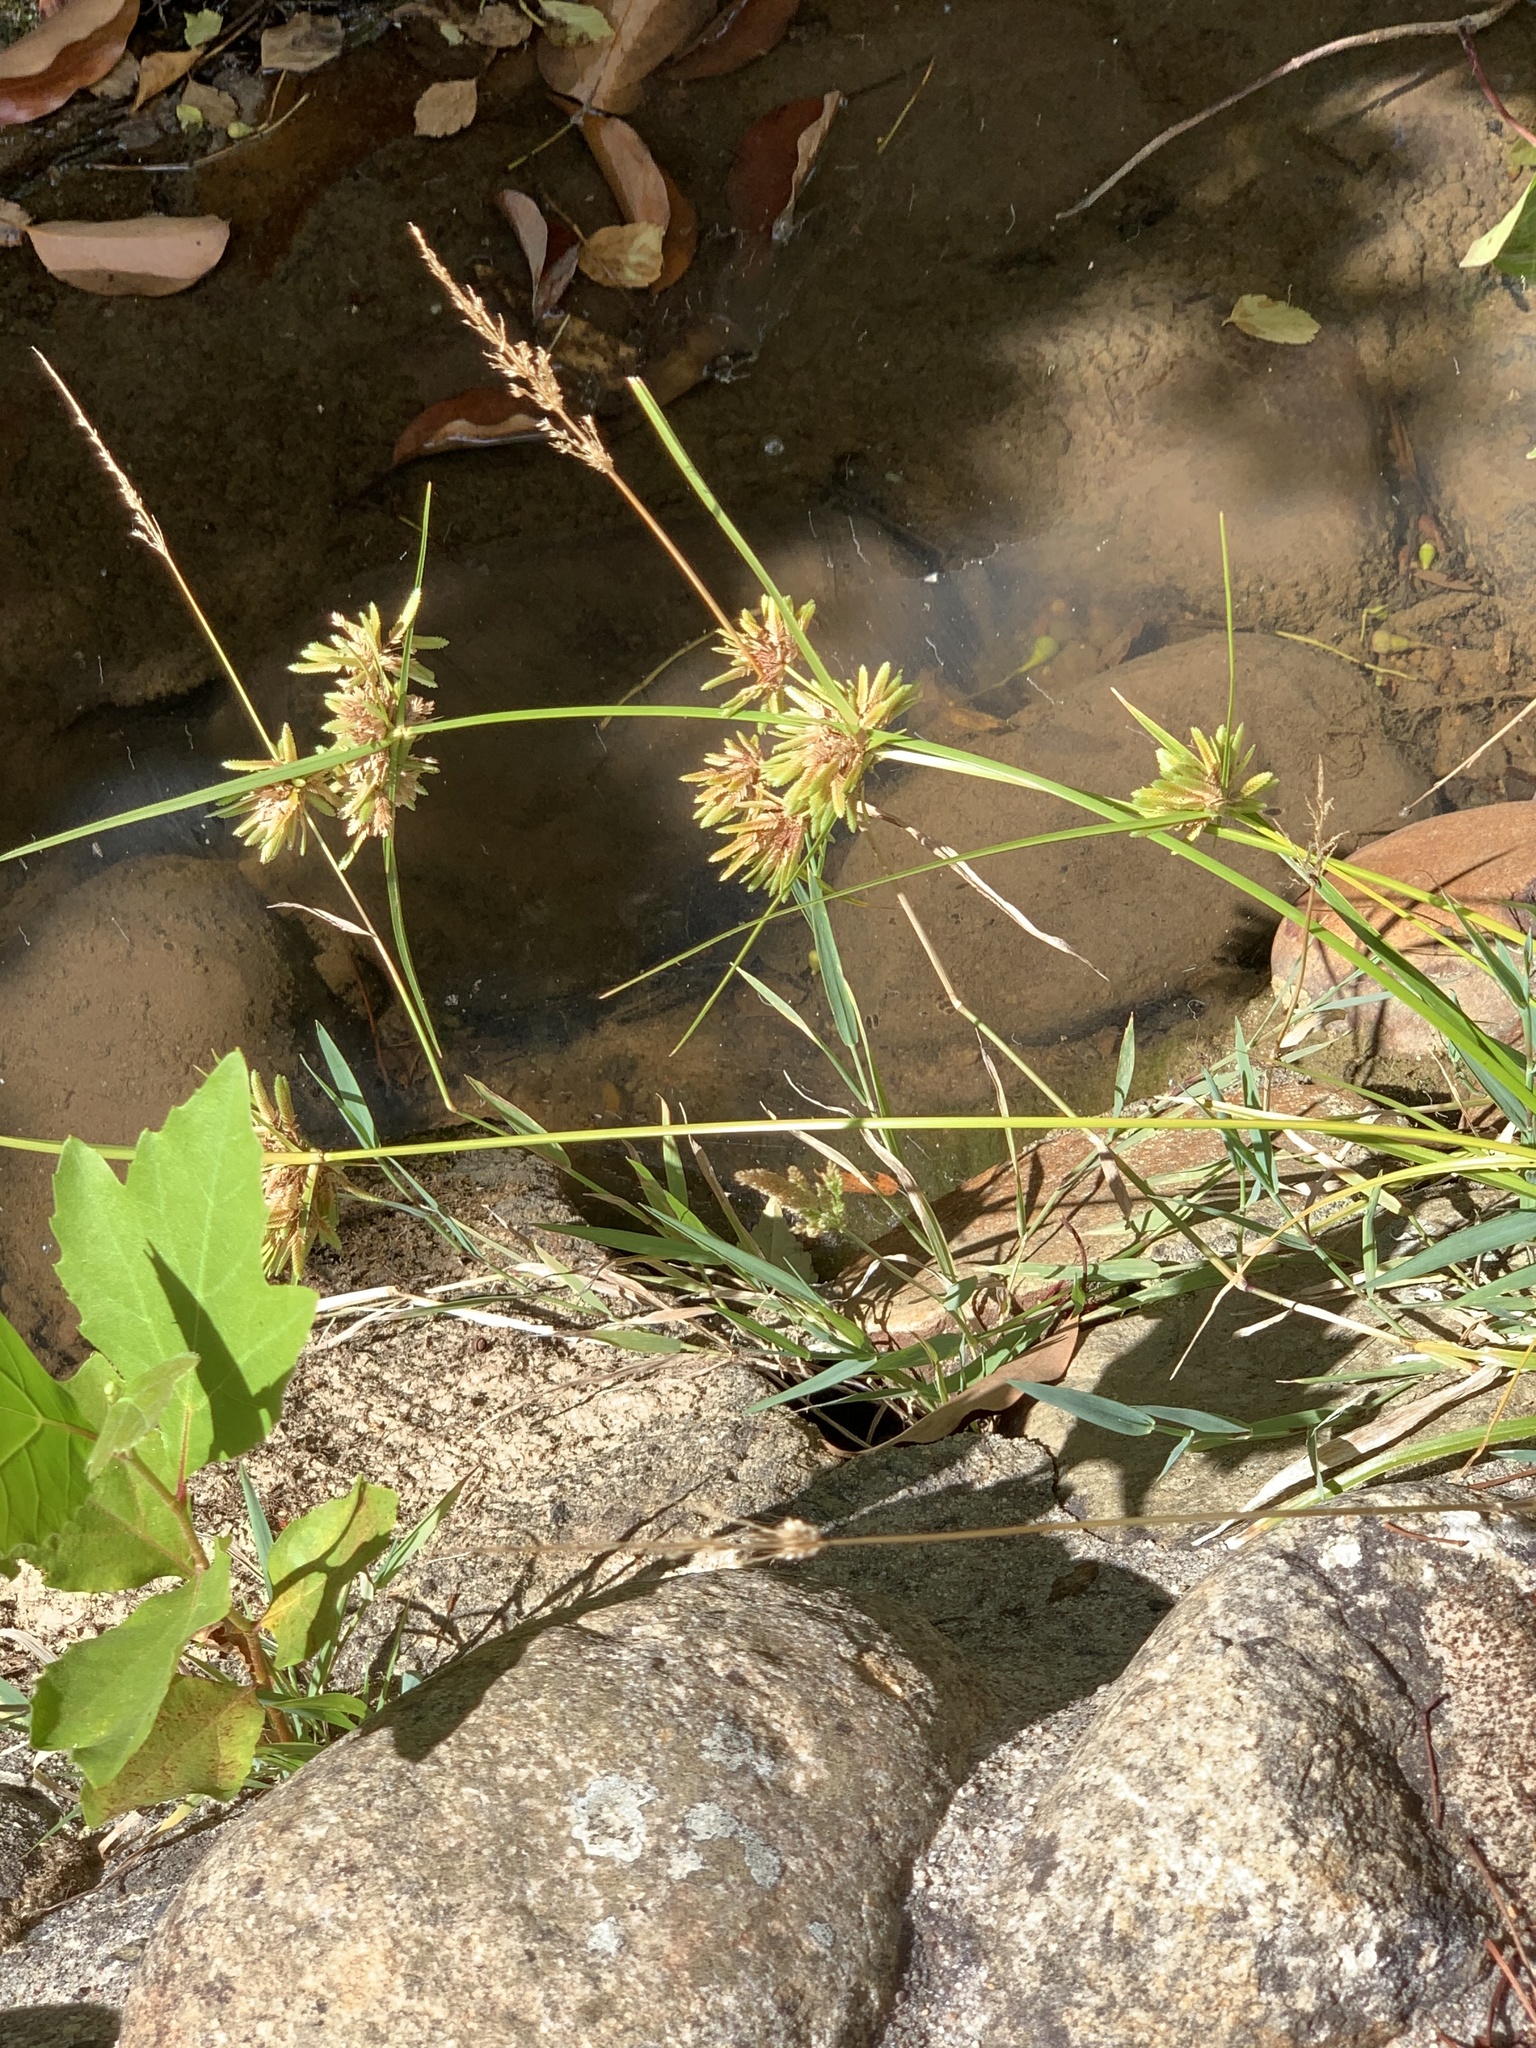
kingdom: Plantae
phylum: Tracheophyta
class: Liliopsida
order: Poales
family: Cyperaceae
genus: Cyperus
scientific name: Cyperus eragrostis
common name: Tall flatsedge
